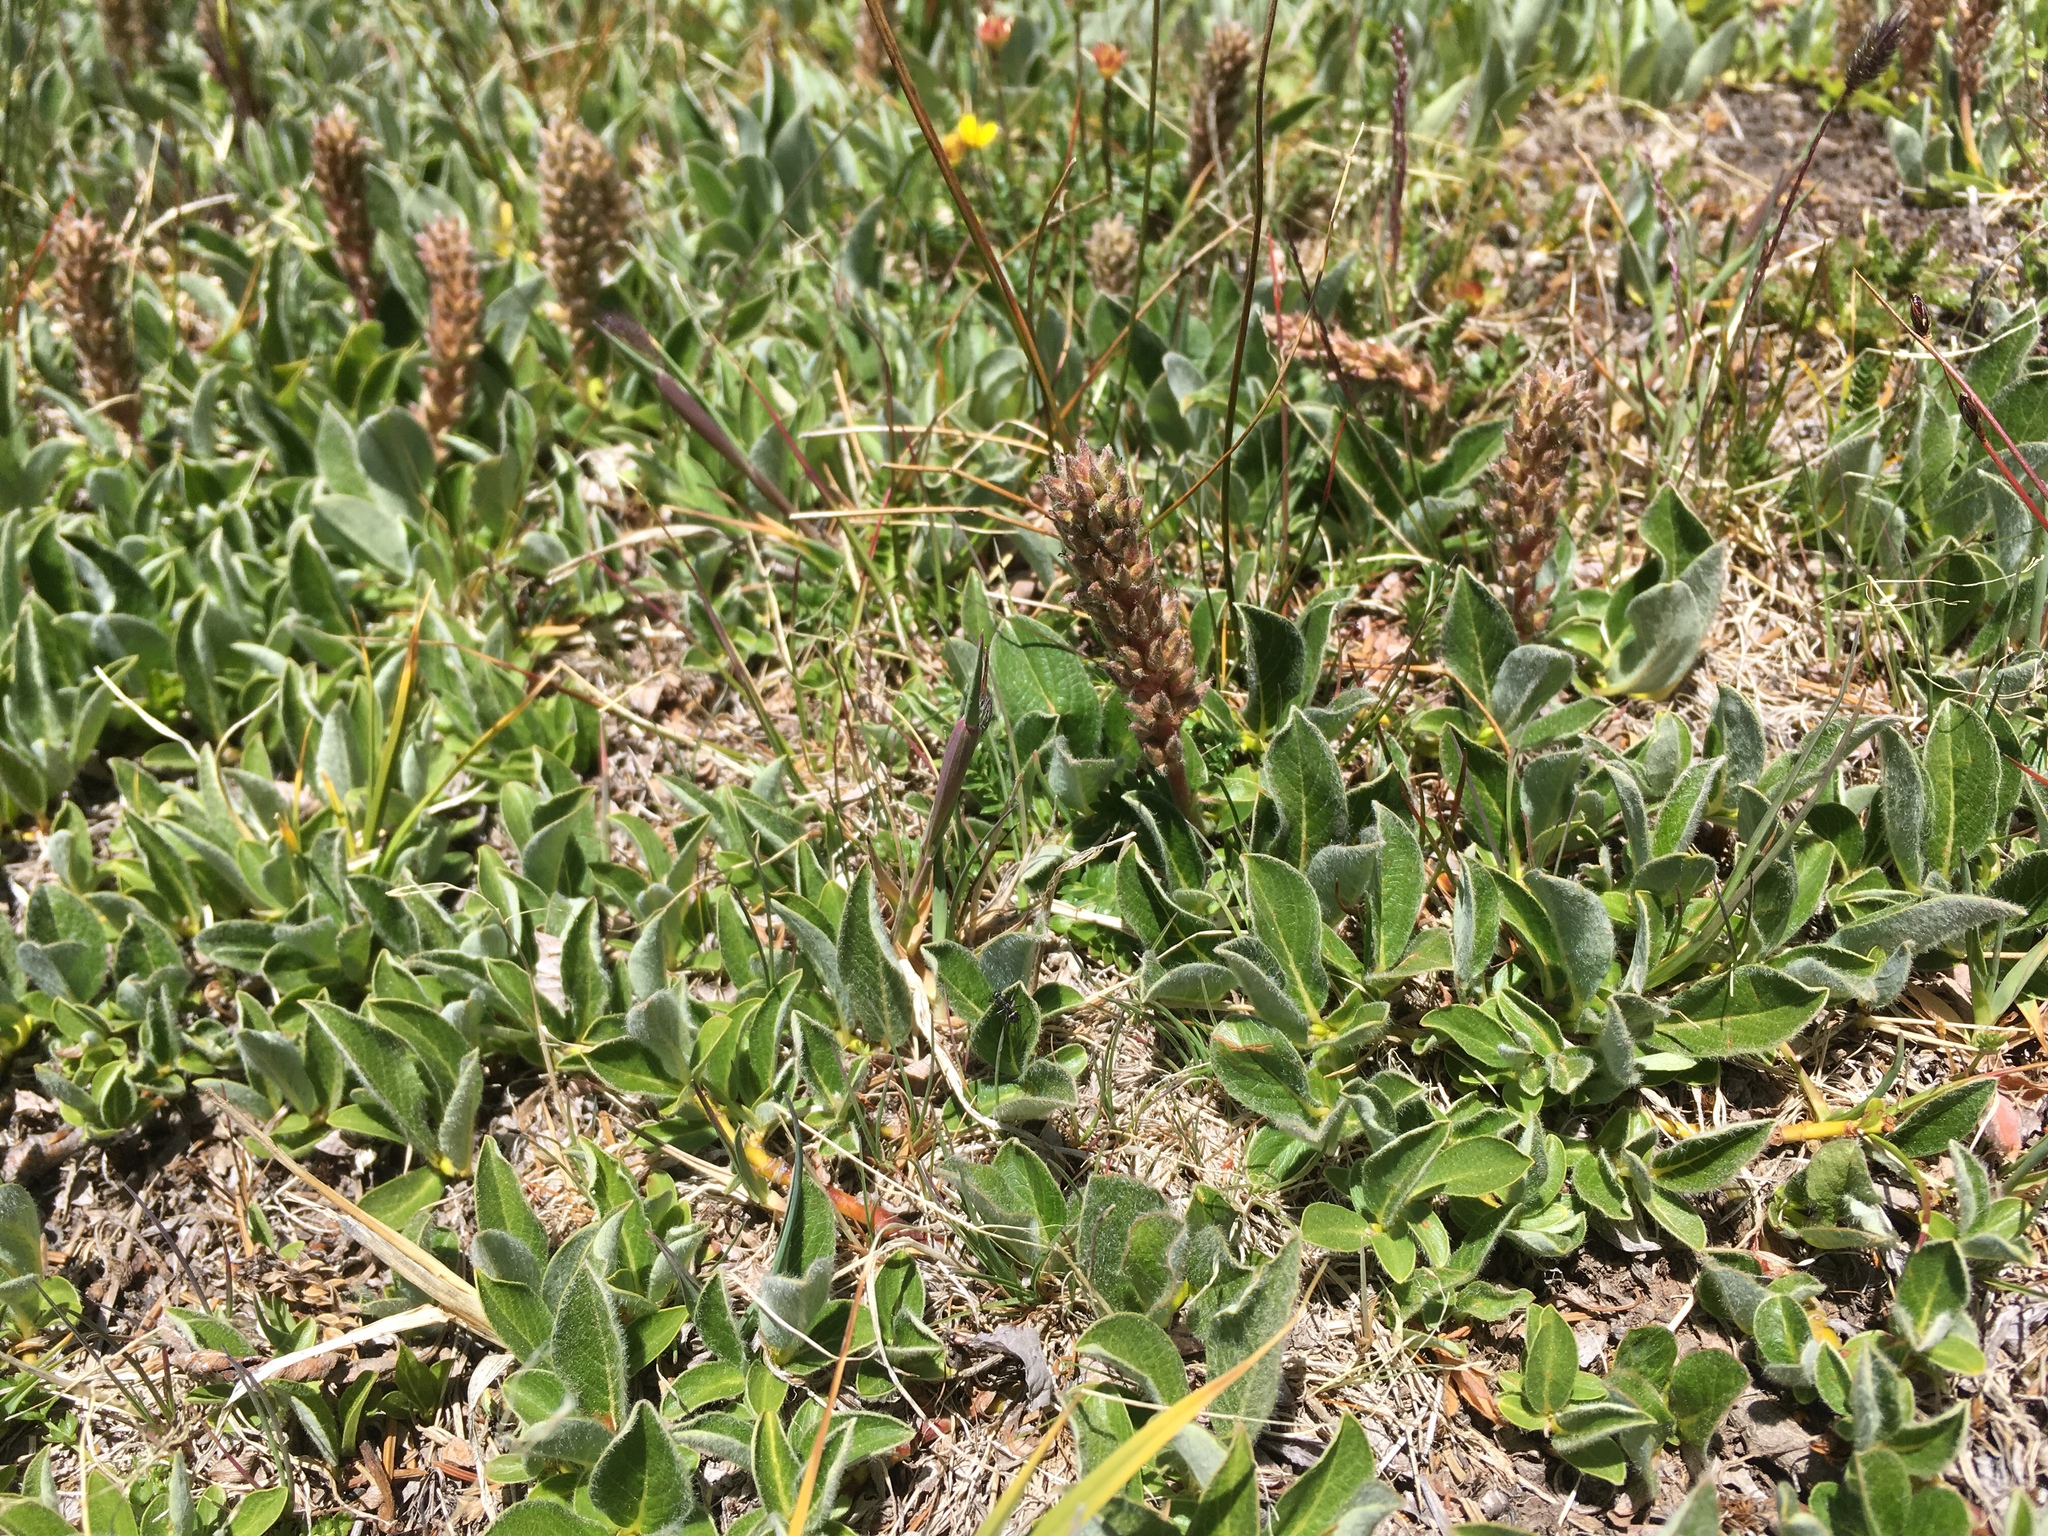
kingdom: Plantae
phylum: Tracheophyta
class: Magnoliopsida
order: Malpighiales
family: Salicaceae
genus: Salix
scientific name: Salix petrophila
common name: Rocky mountain willow
